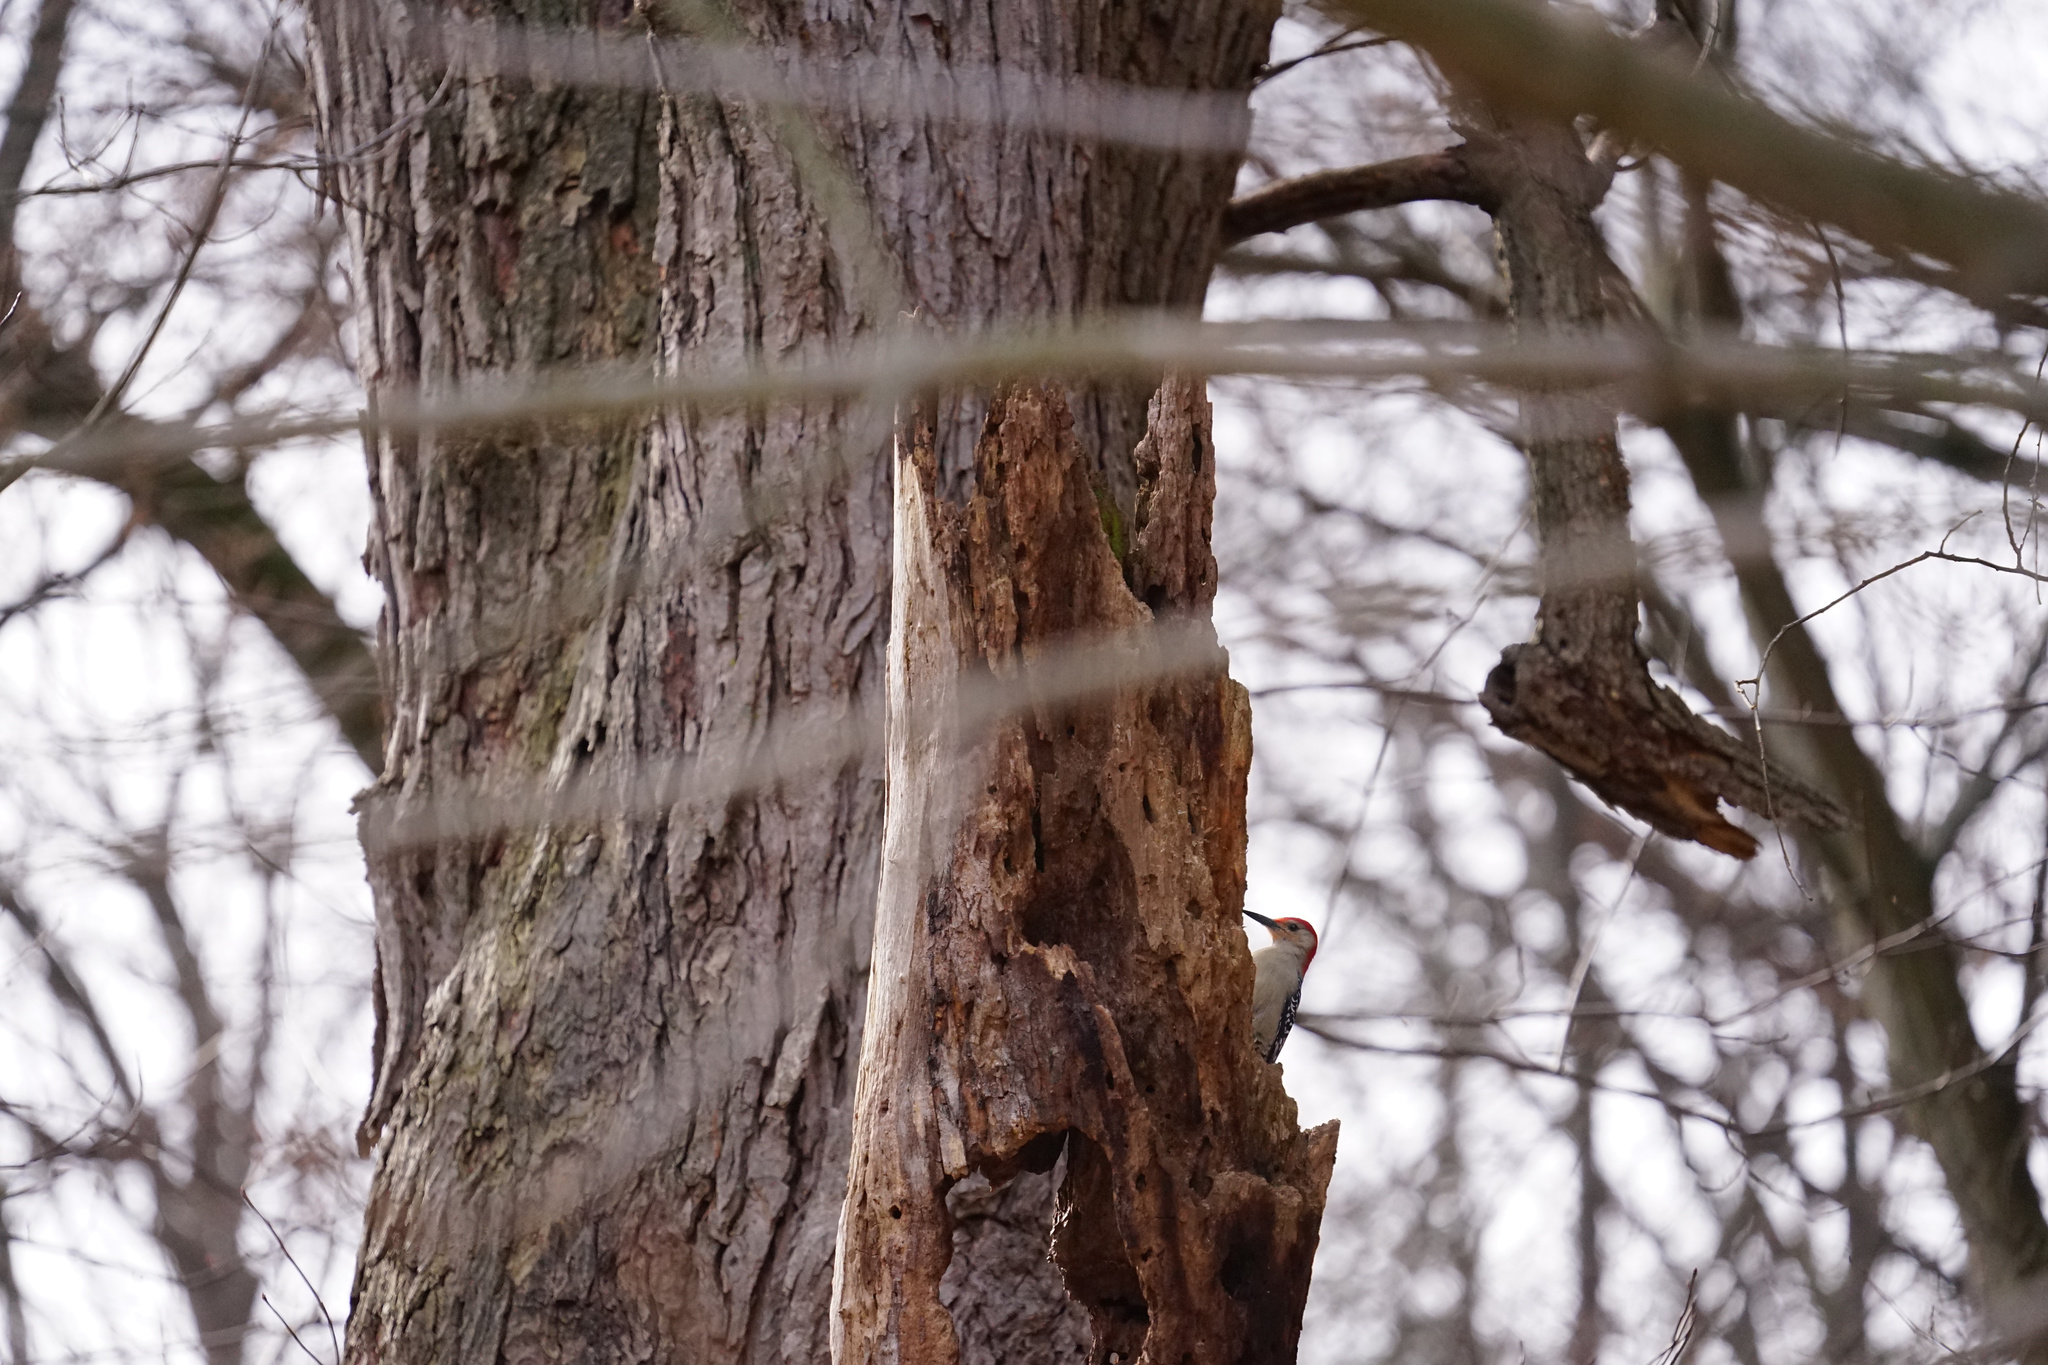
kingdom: Animalia
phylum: Chordata
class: Aves
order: Piciformes
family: Picidae
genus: Melanerpes
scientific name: Melanerpes carolinus
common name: Red-bellied woodpecker
